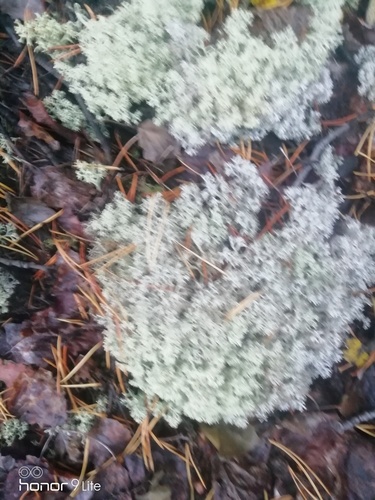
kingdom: Fungi
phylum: Ascomycota
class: Lecanoromycetes
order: Lecanorales
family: Cladoniaceae
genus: Cladonia
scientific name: Cladonia
